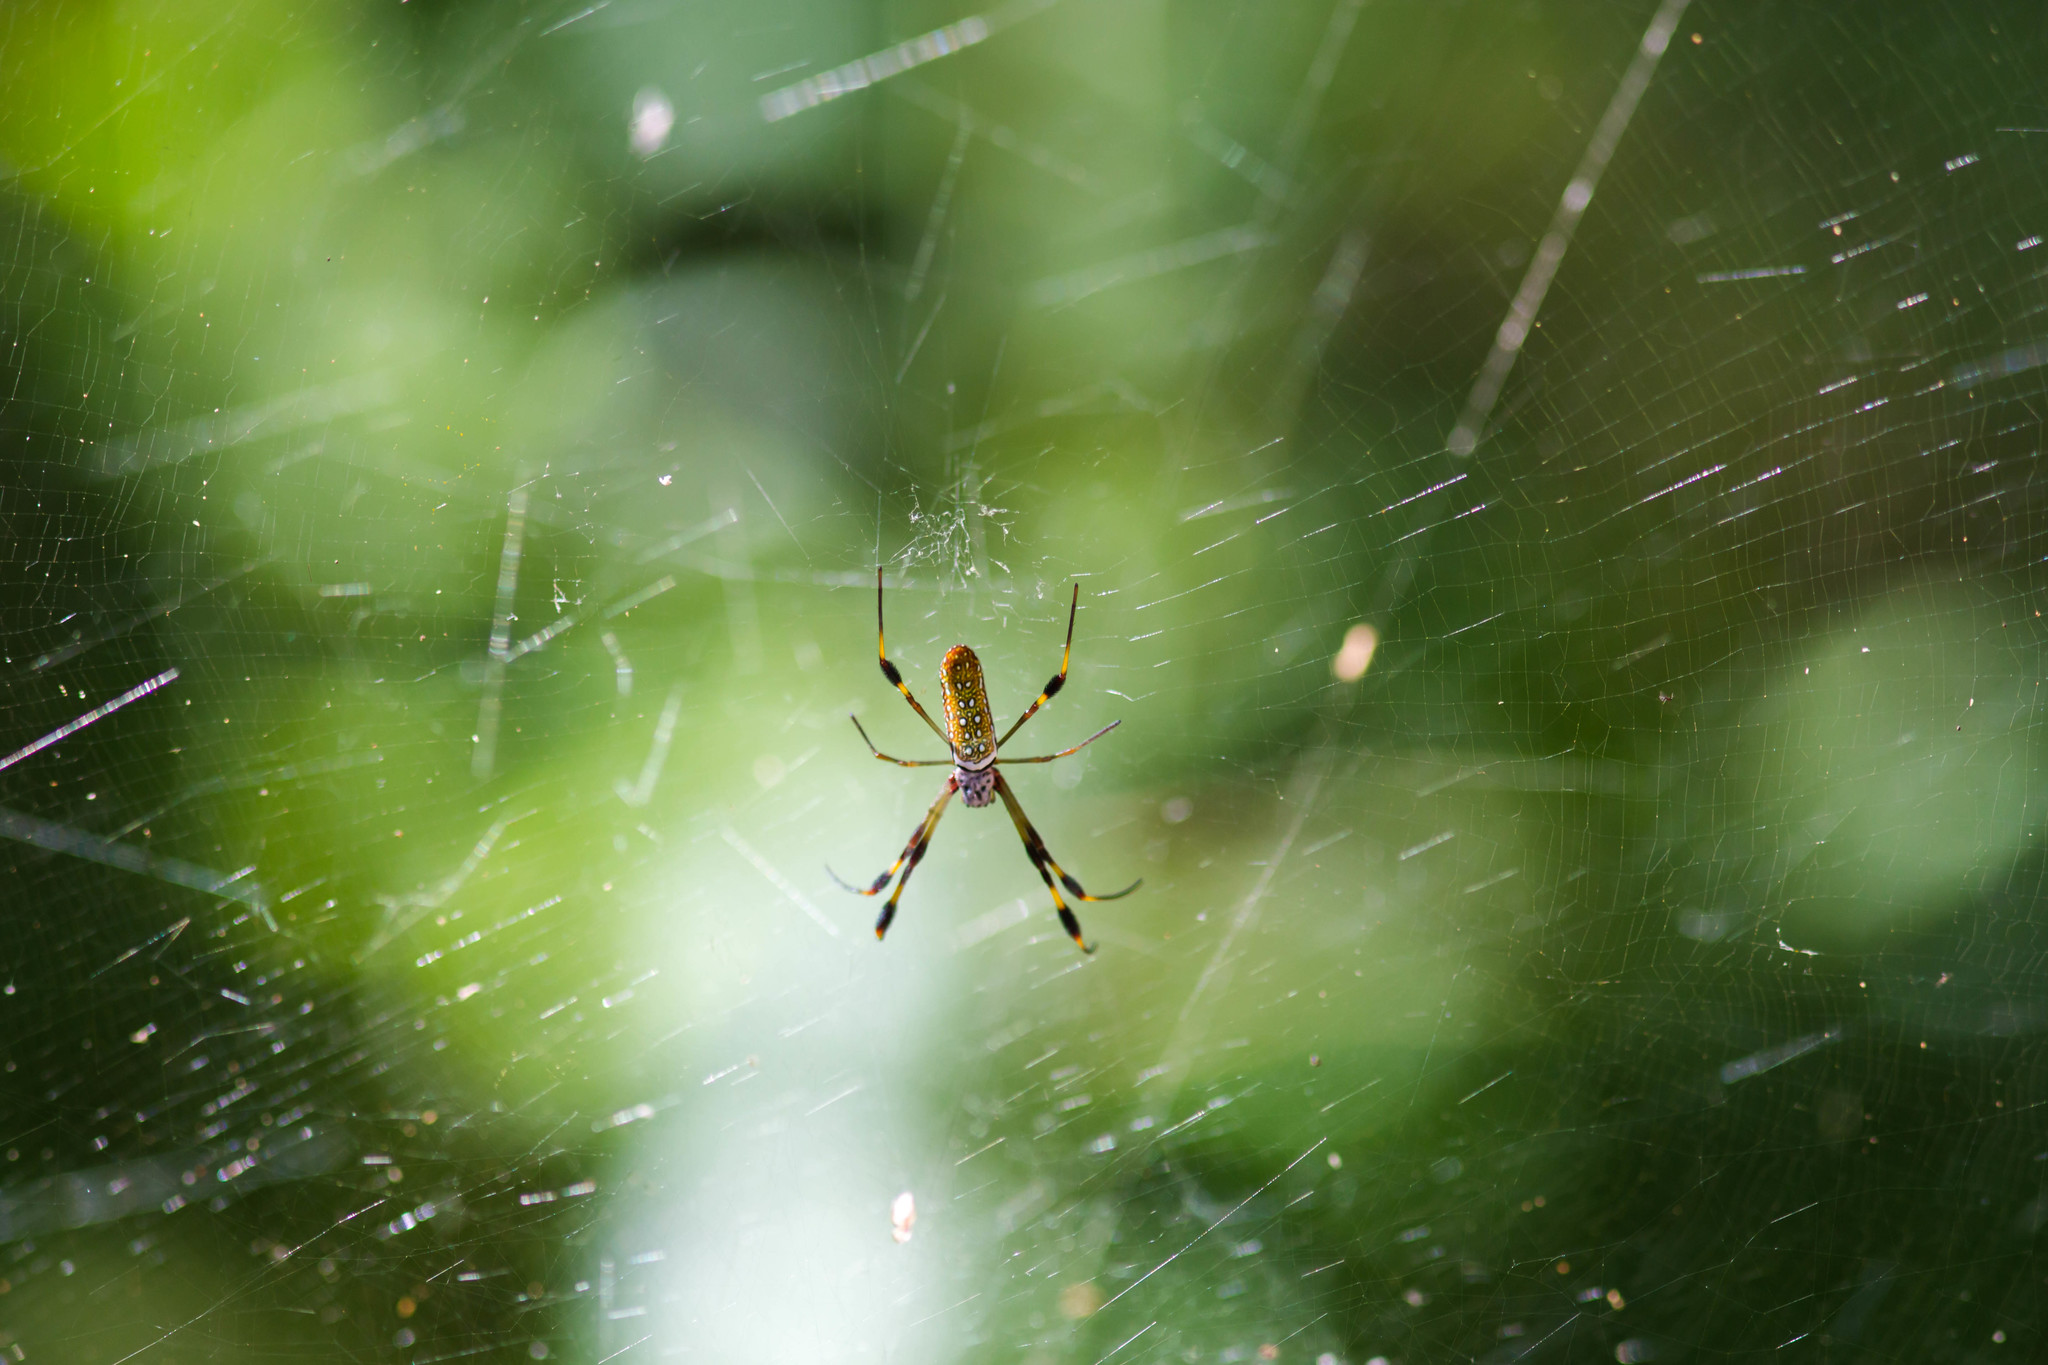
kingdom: Animalia
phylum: Arthropoda
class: Arachnida
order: Araneae
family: Araneidae
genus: Trichonephila
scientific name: Trichonephila clavipes
